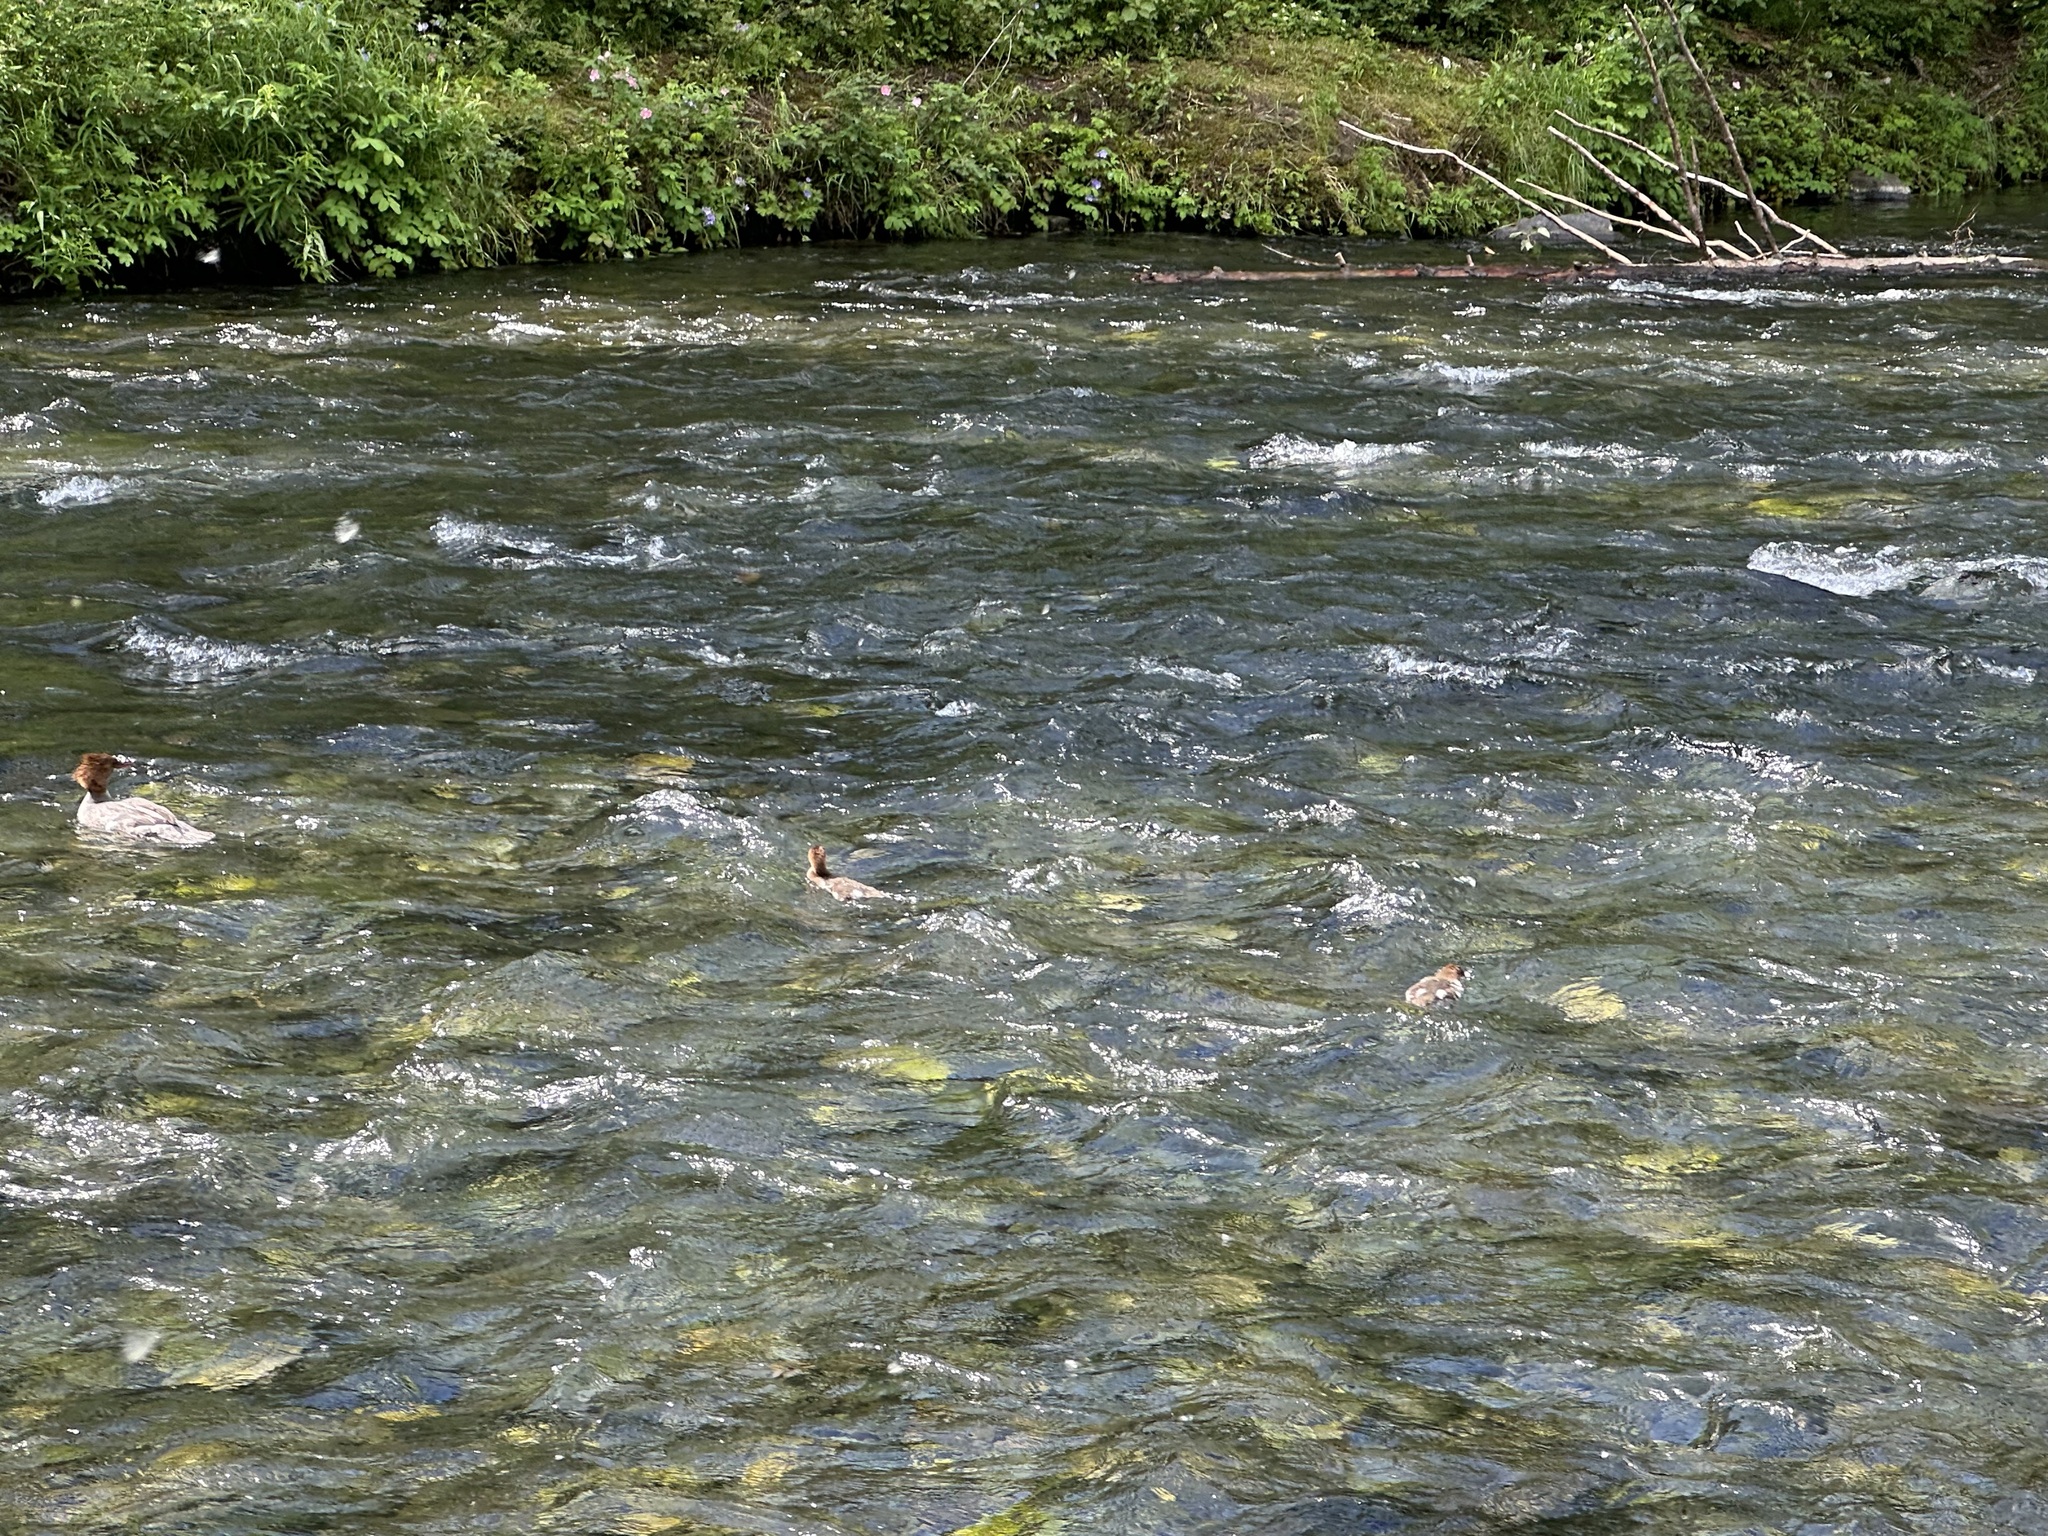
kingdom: Animalia
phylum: Chordata
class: Aves
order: Anseriformes
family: Anatidae
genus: Mergus
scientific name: Mergus merganser
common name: Common merganser
